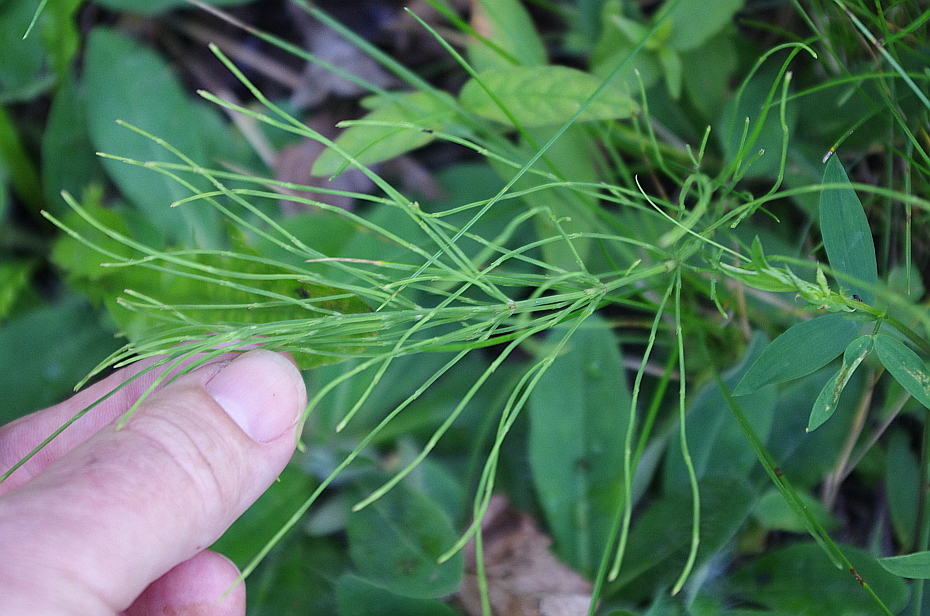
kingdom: Plantae
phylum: Tracheophyta
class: Polypodiopsida
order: Equisetales
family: Equisetaceae
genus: Equisetum
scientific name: Equisetum arvense
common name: Field horsetail
